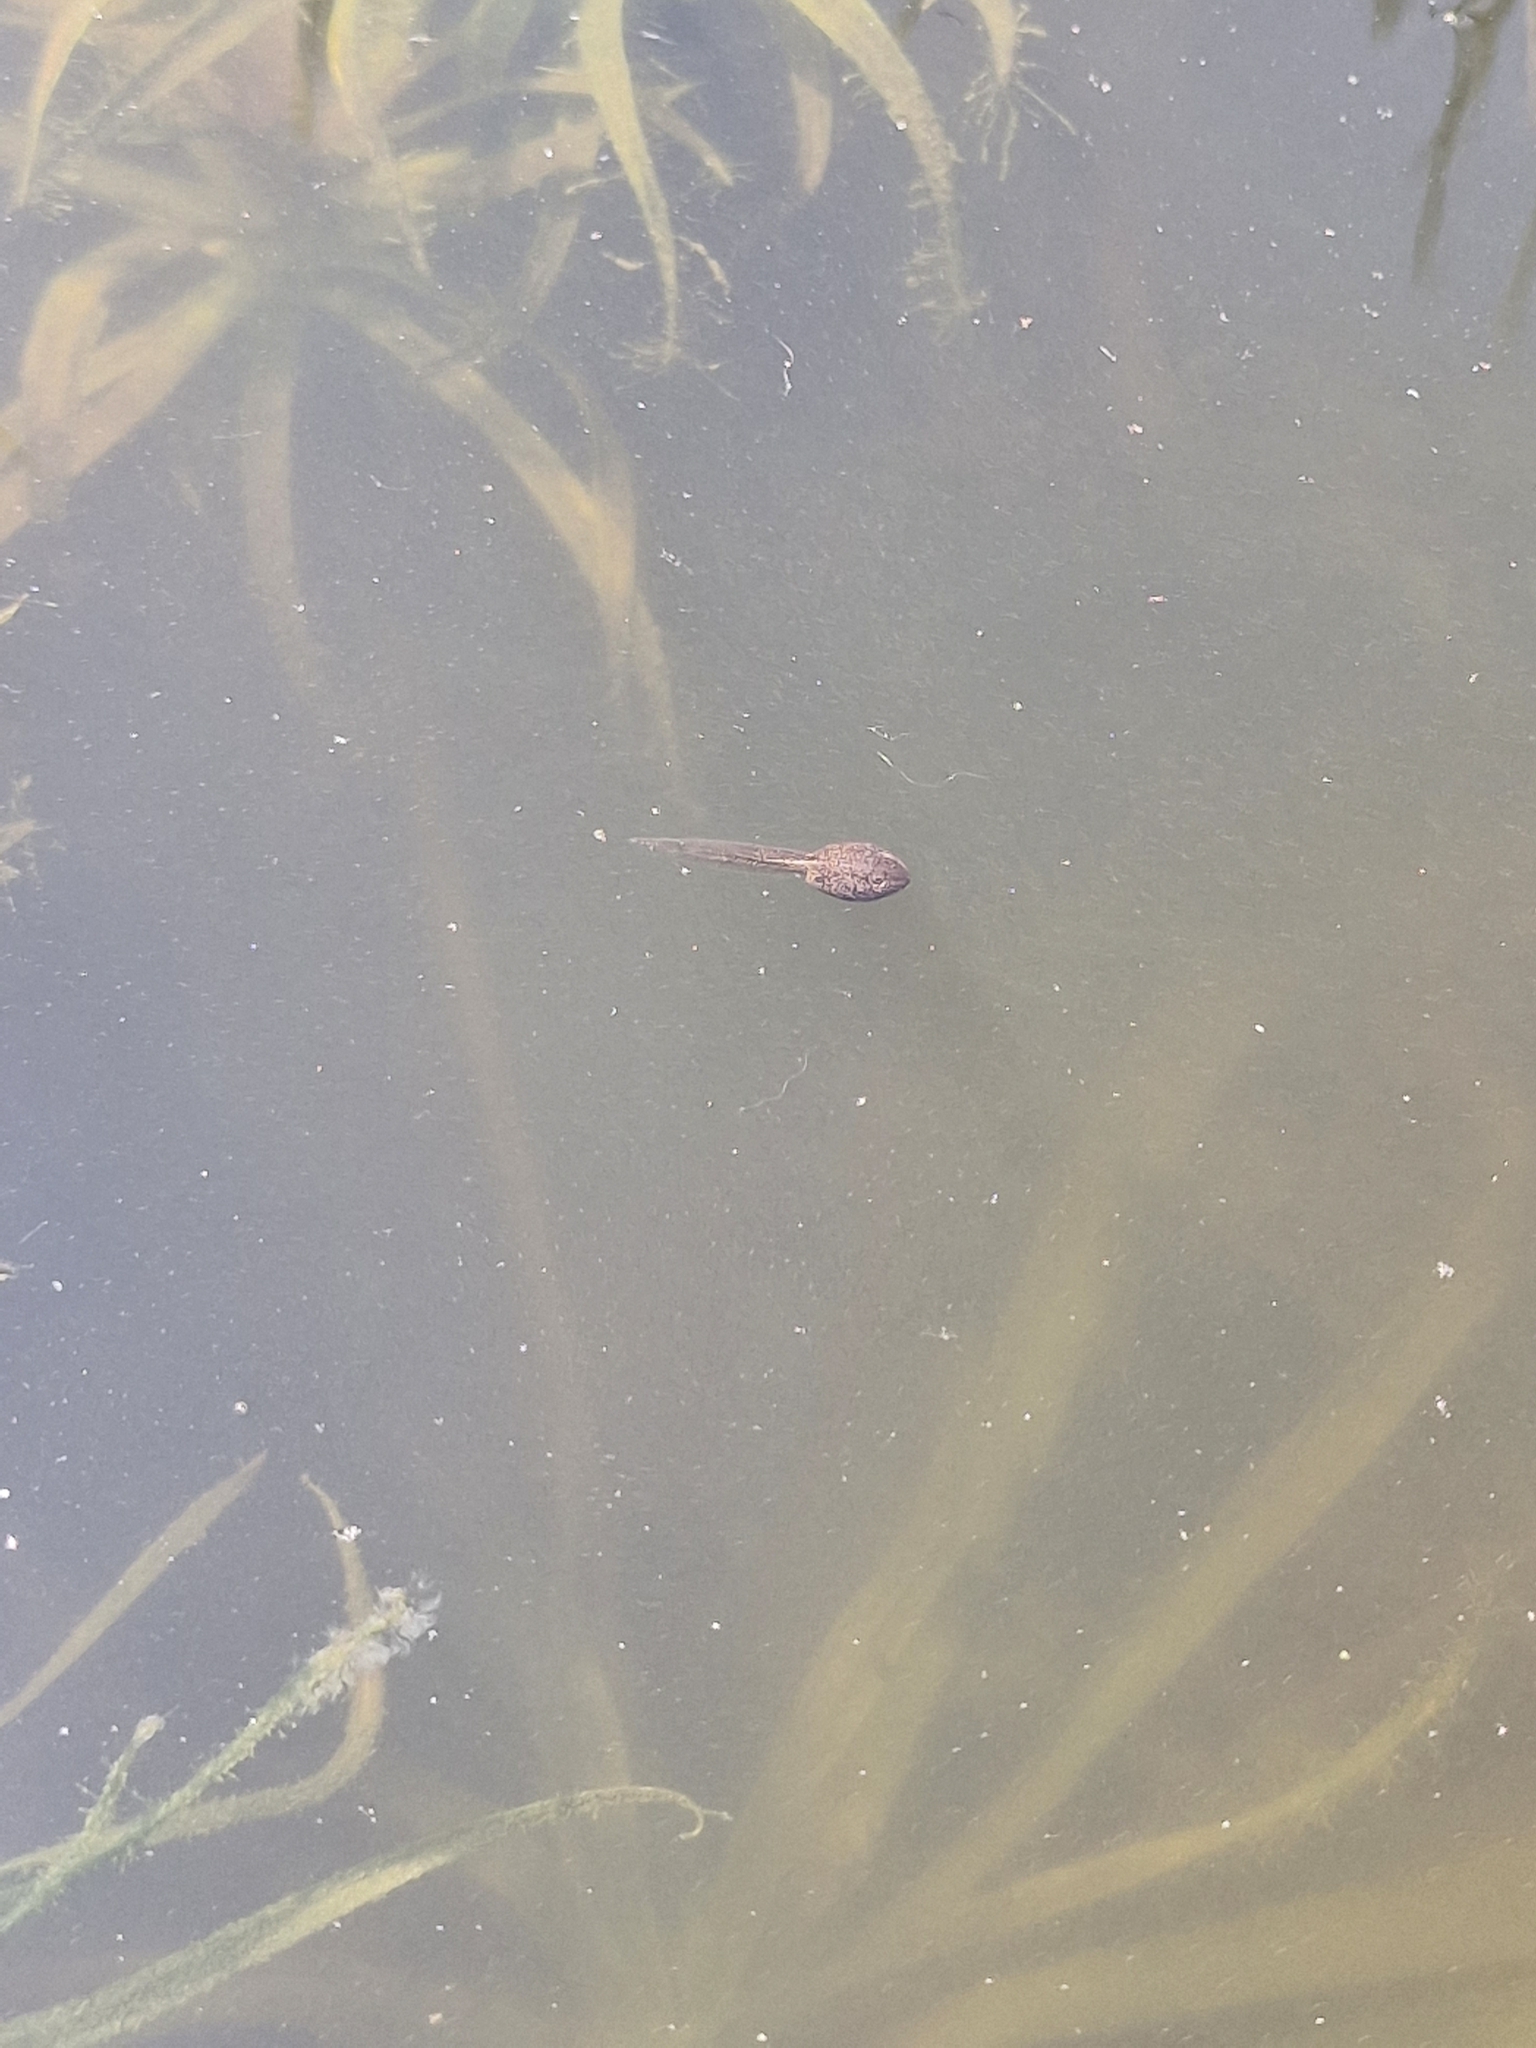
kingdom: Animalia
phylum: Chordata
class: Amphibia
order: Anura
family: Ranidae
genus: Rana
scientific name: Rana temporaria
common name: Common frog
